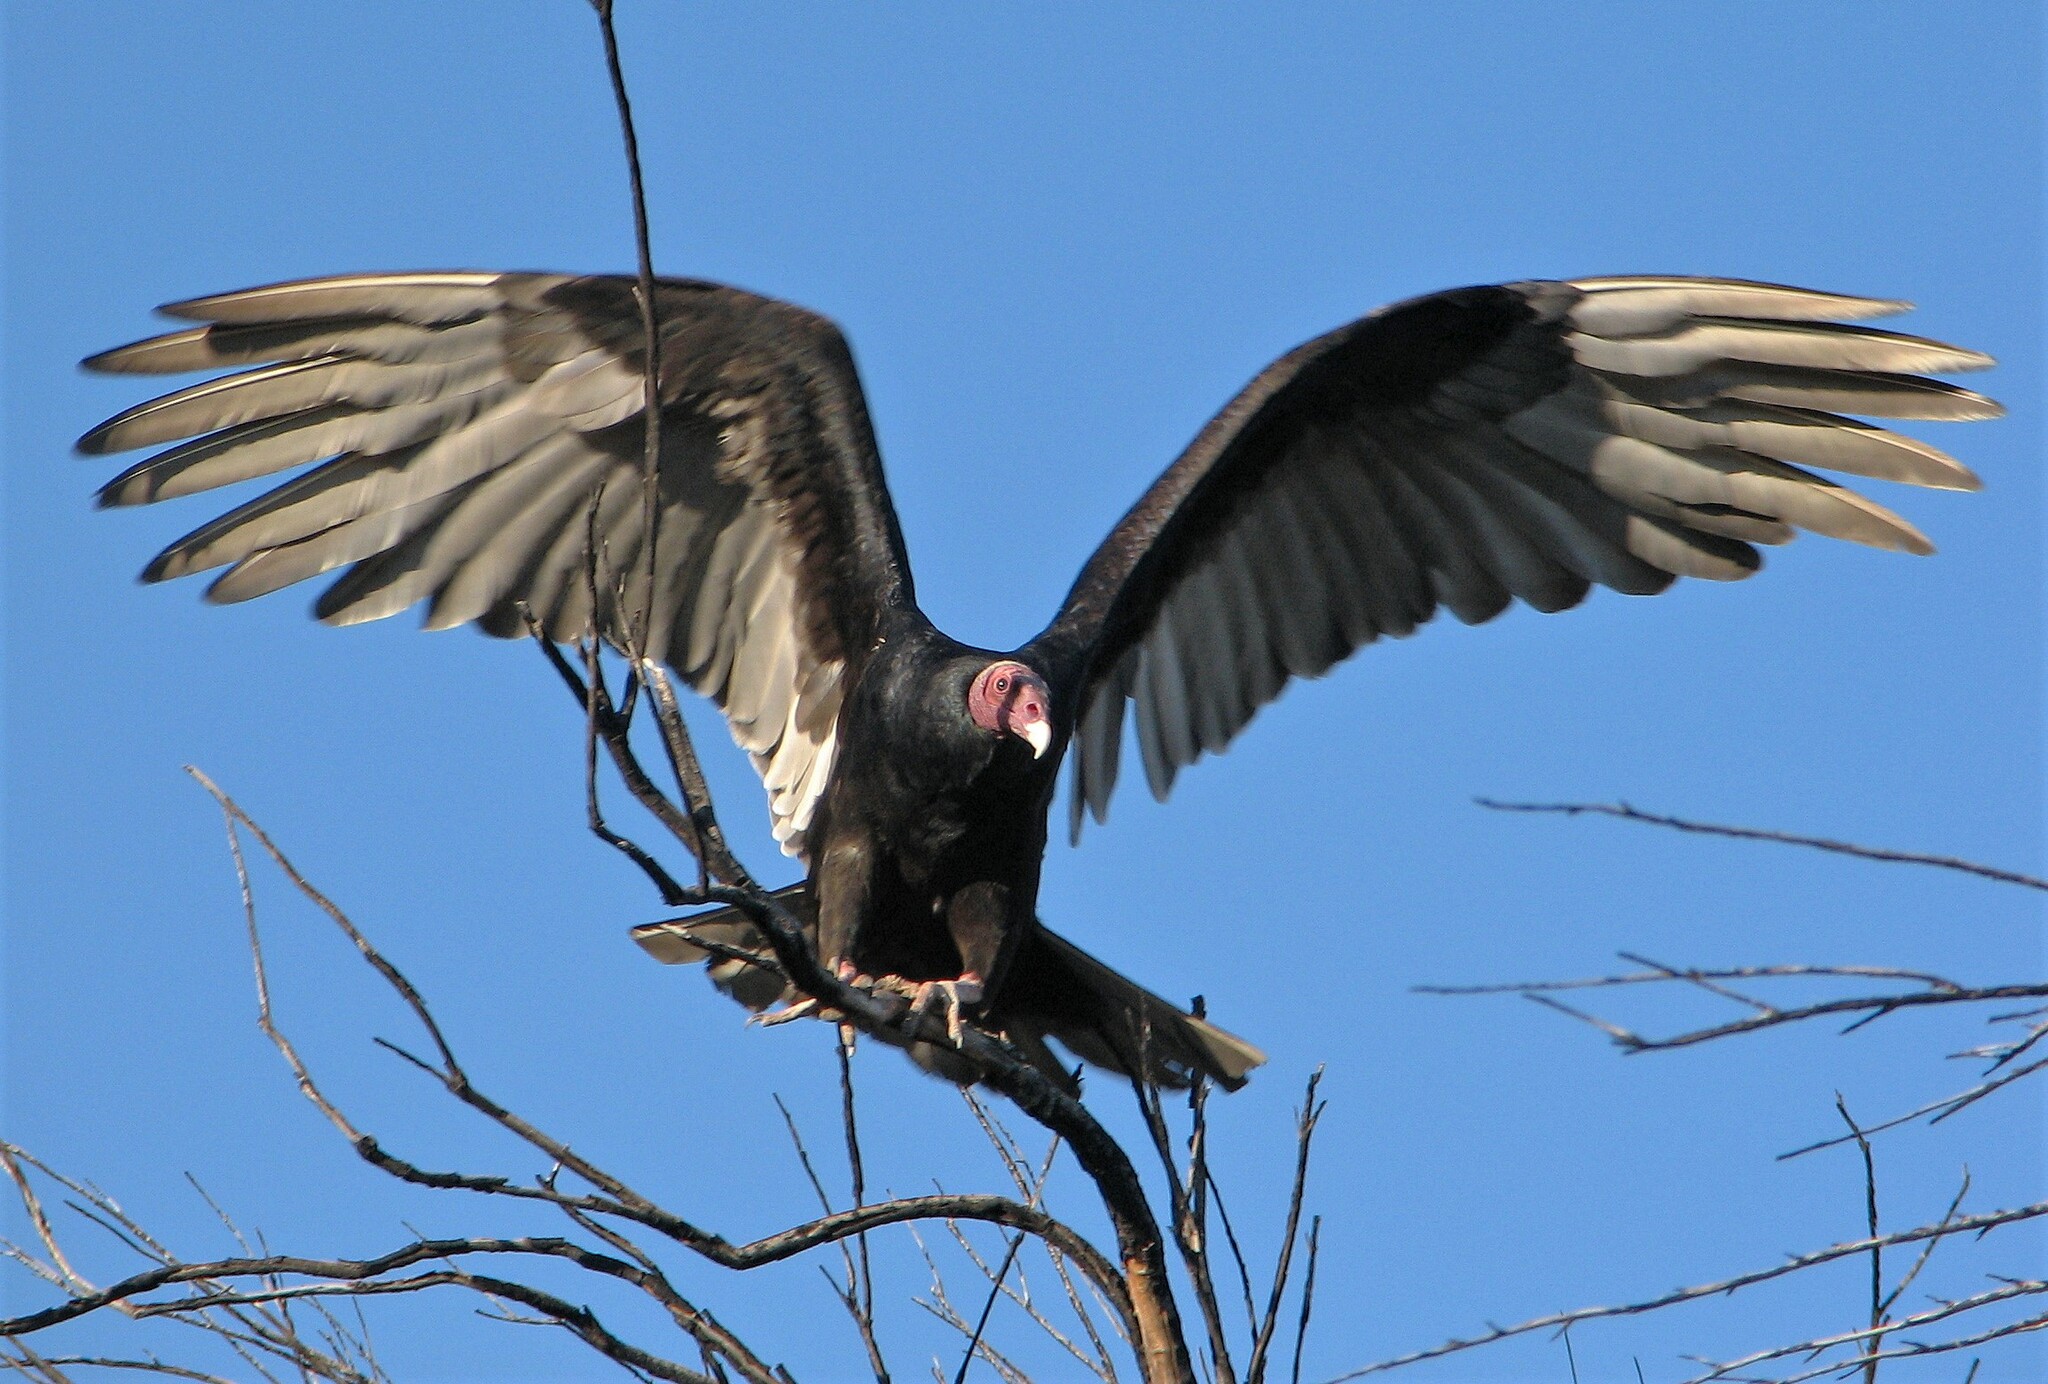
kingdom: Animalia
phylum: Chordata
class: Aves
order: Accipitriformes
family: Cathartidae
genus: Cathartes
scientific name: Cathartes aura
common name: Turkey vulture
